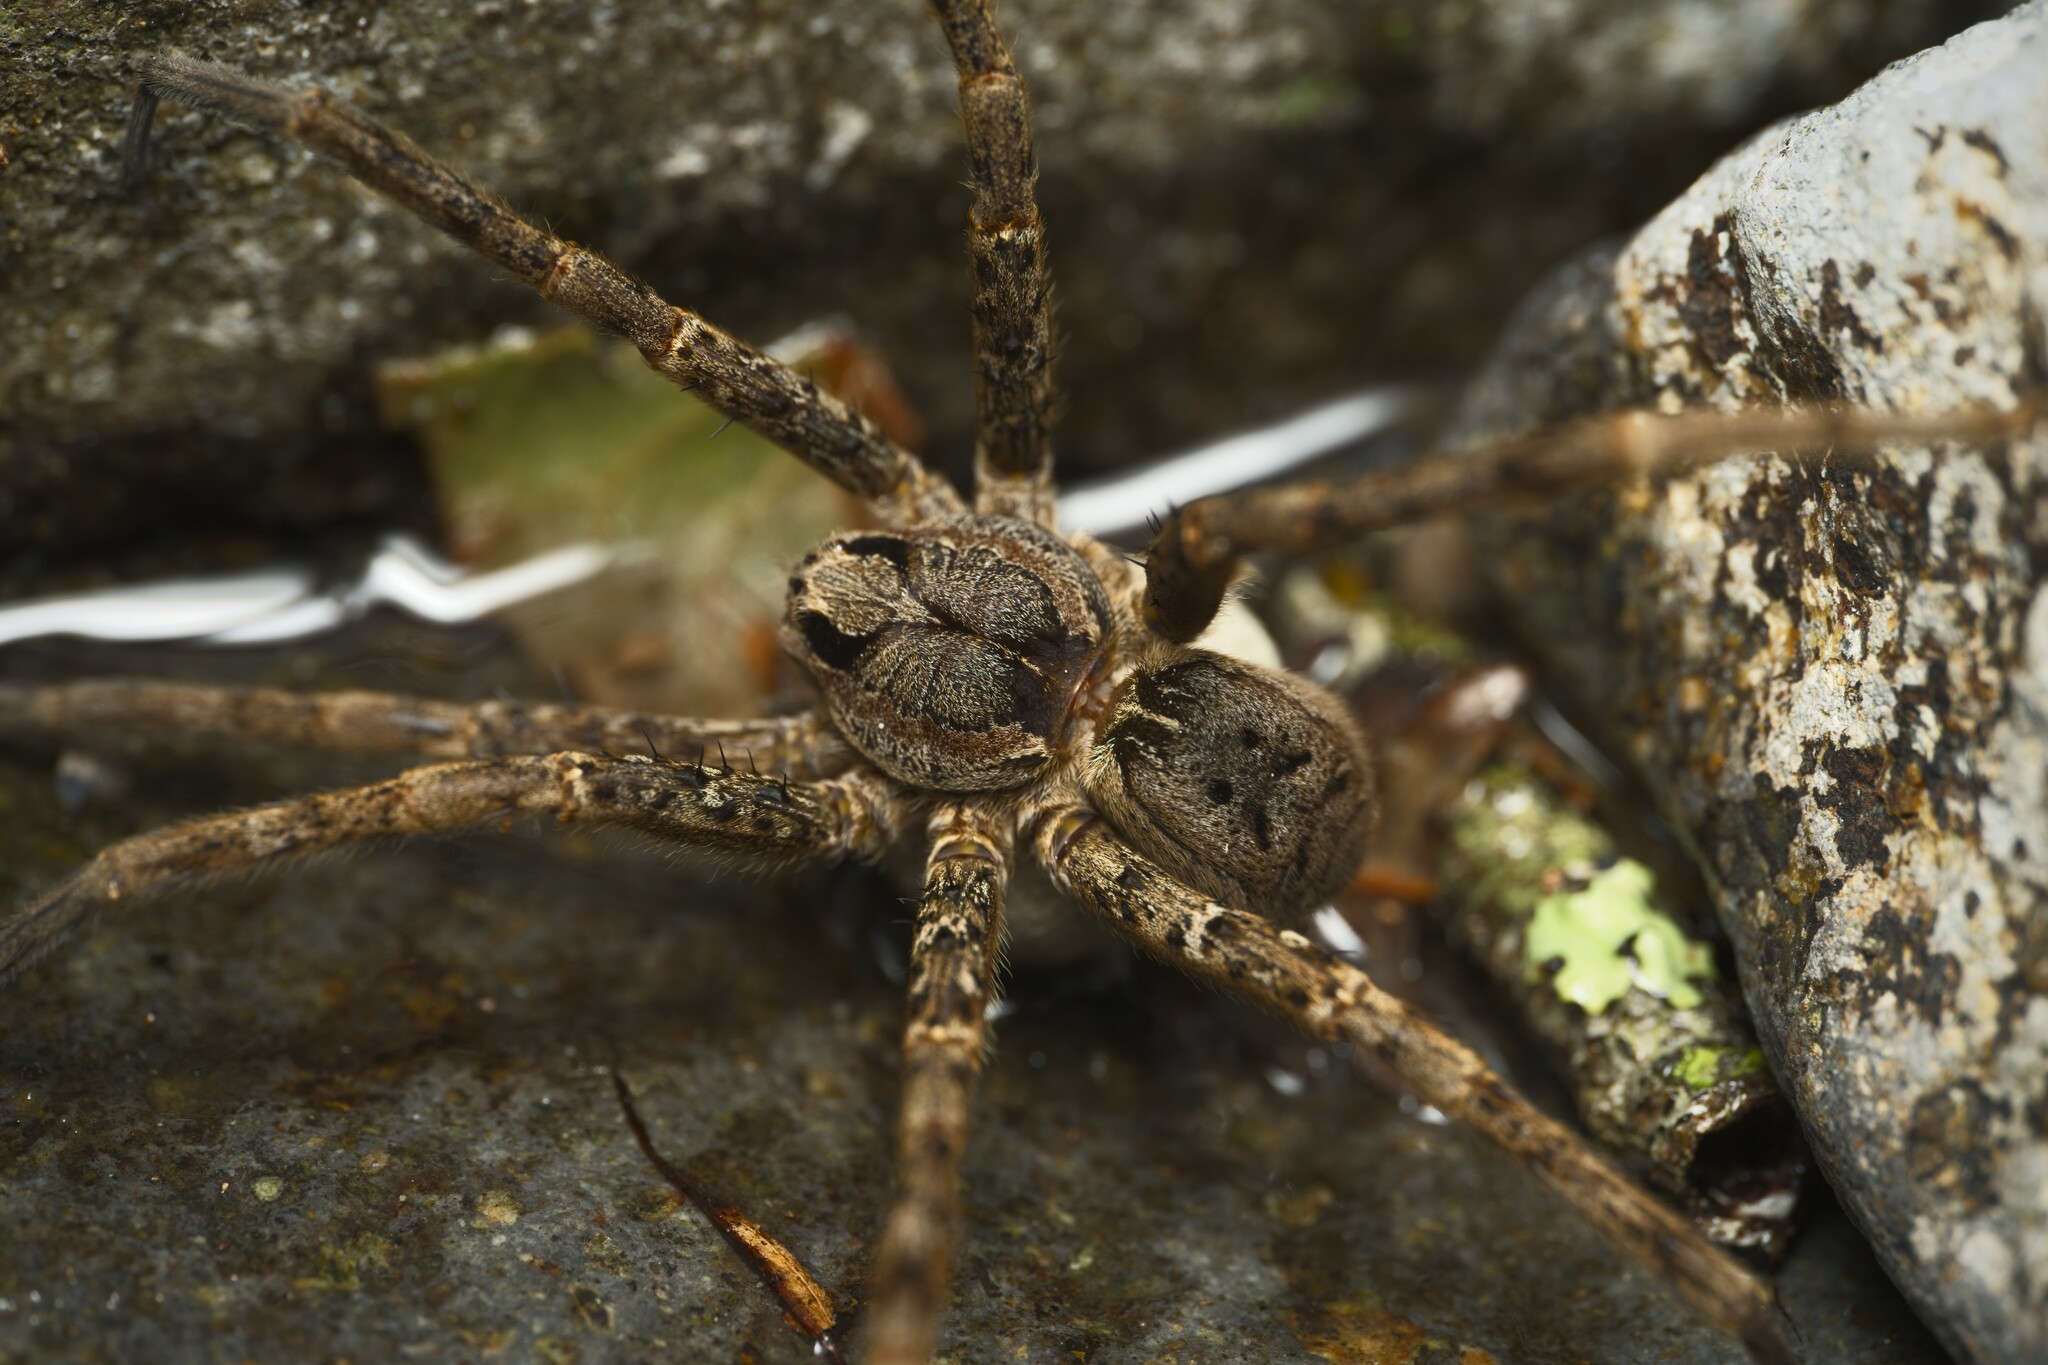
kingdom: Animalia
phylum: Arthropoda
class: Arachnida
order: Araneae
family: Pisauridae
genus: Dolomedes
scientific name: Dolomedes dondalei
